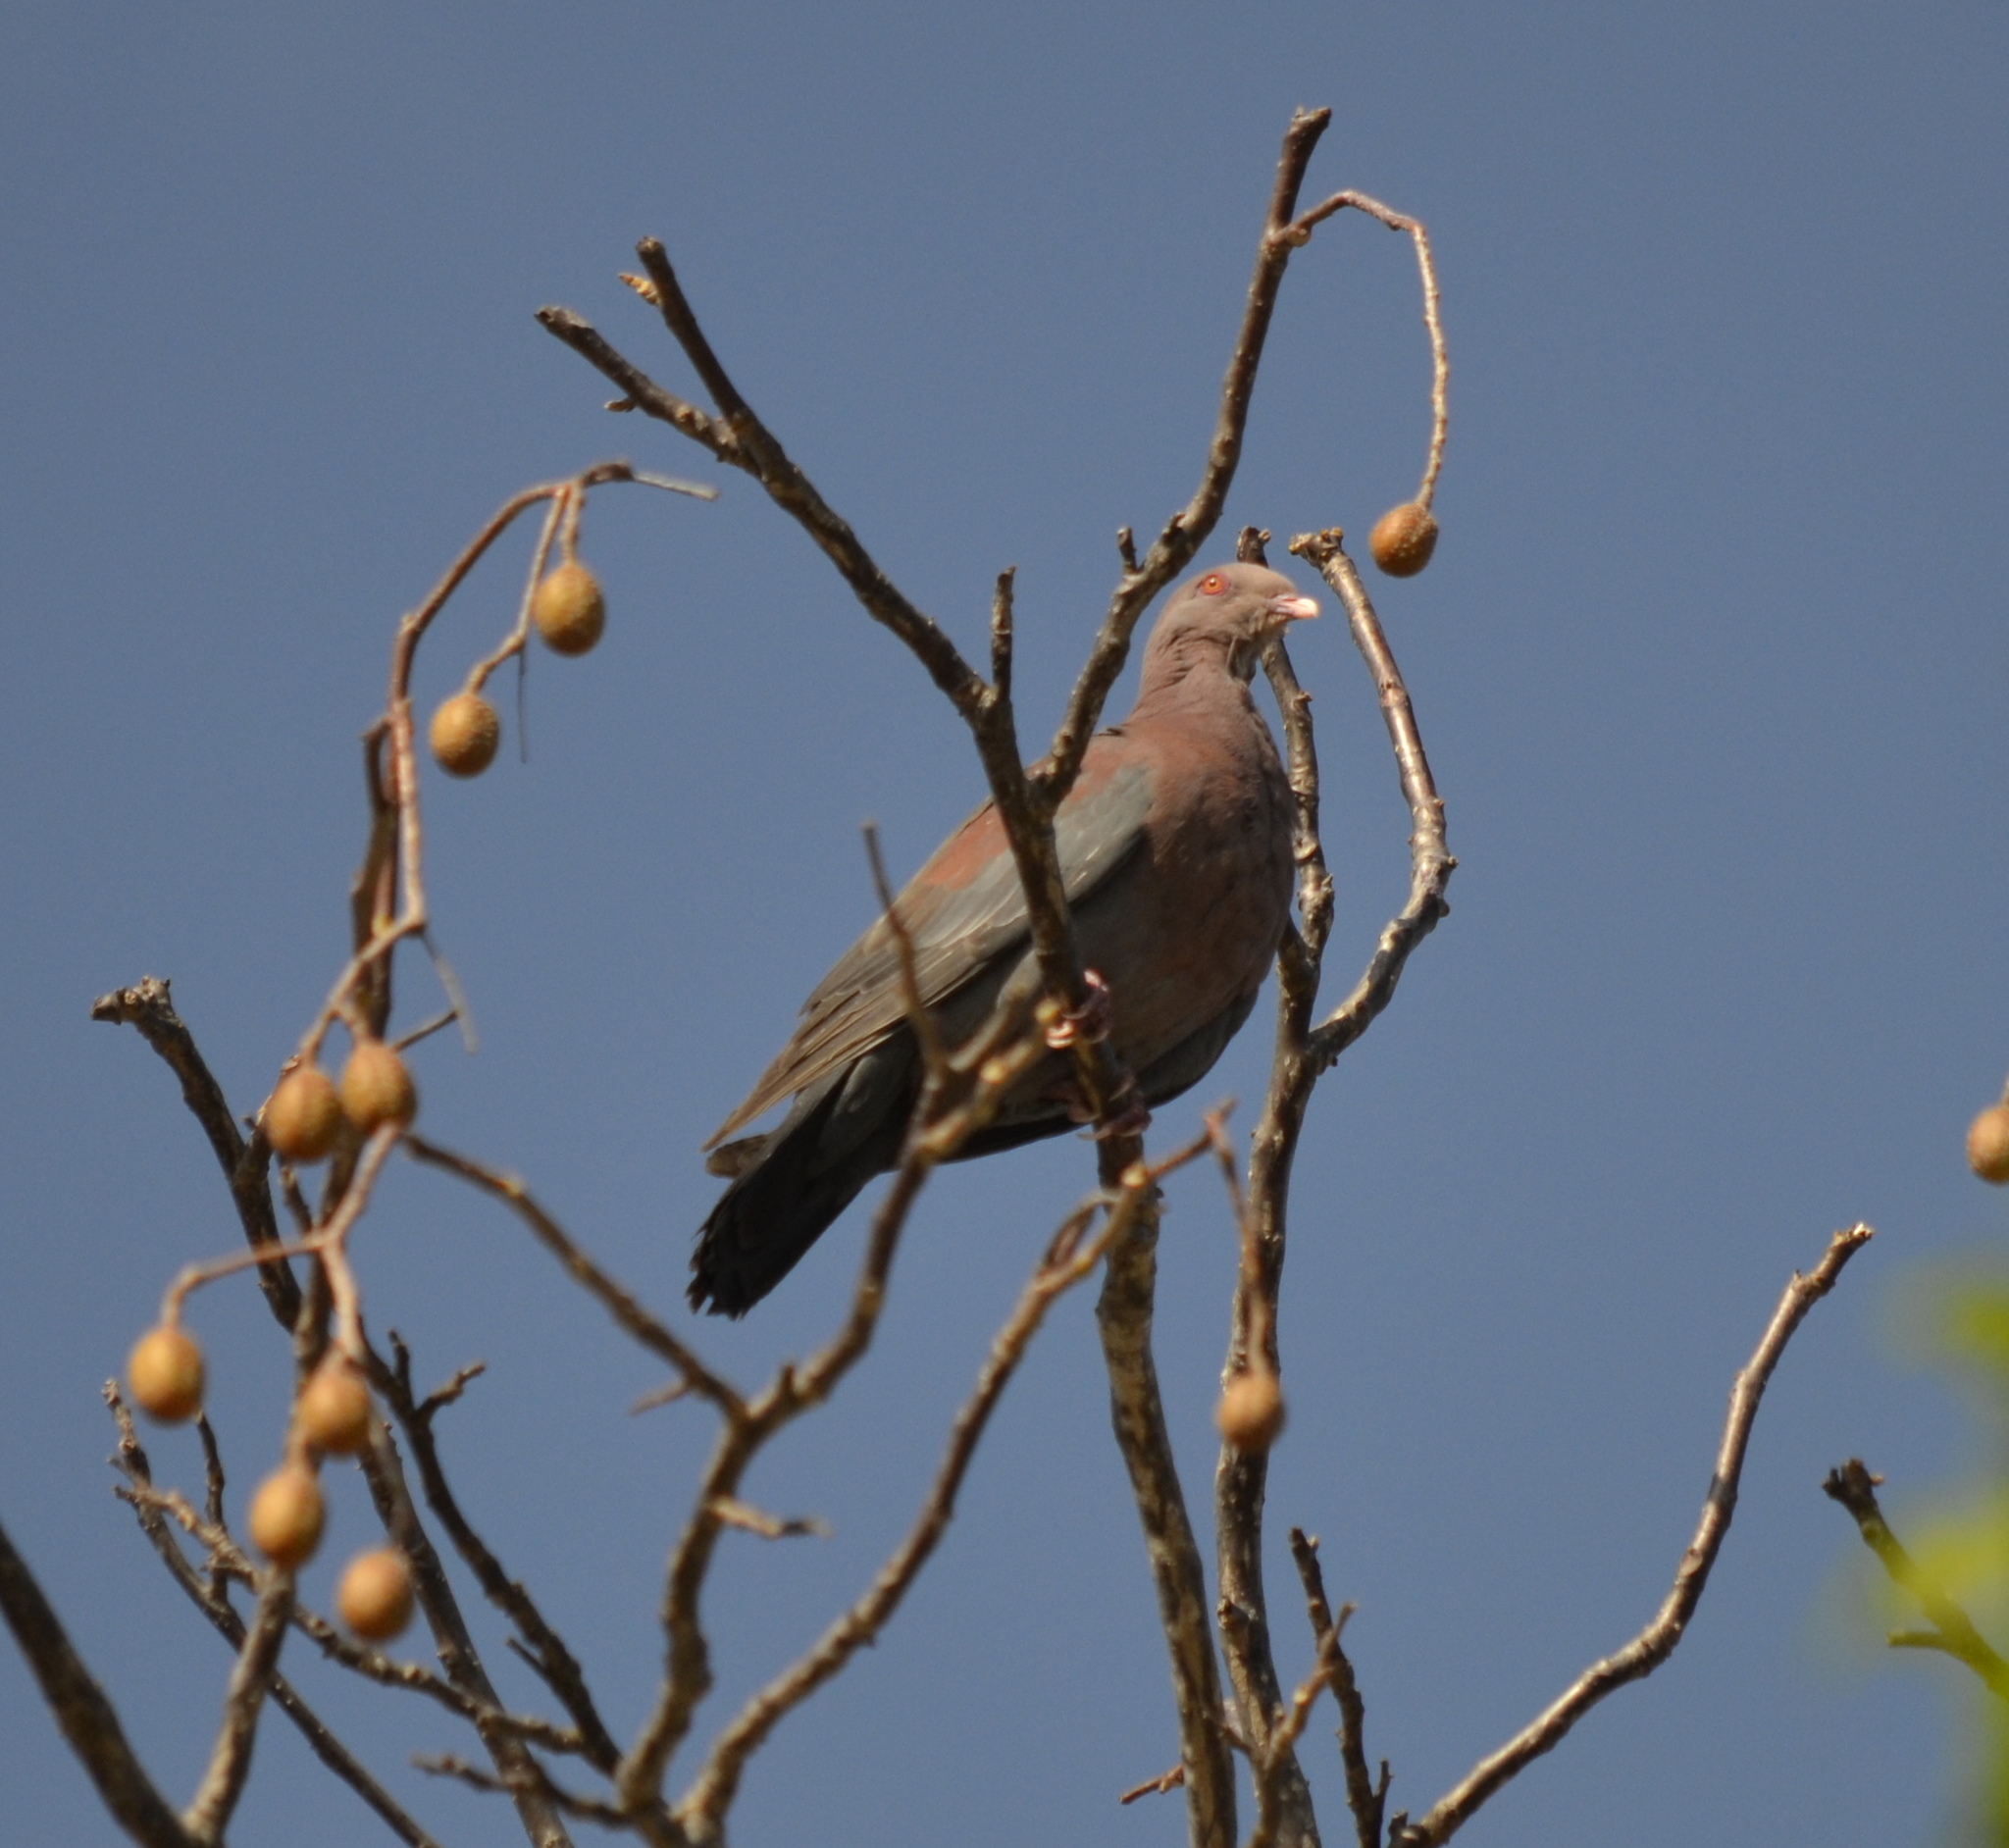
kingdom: Animalia
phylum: Chordata
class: Aves
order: Columbiformes
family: Columbidae
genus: Patagioenas
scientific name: Patagioenas flavirostris
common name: Red-billed pigeon
